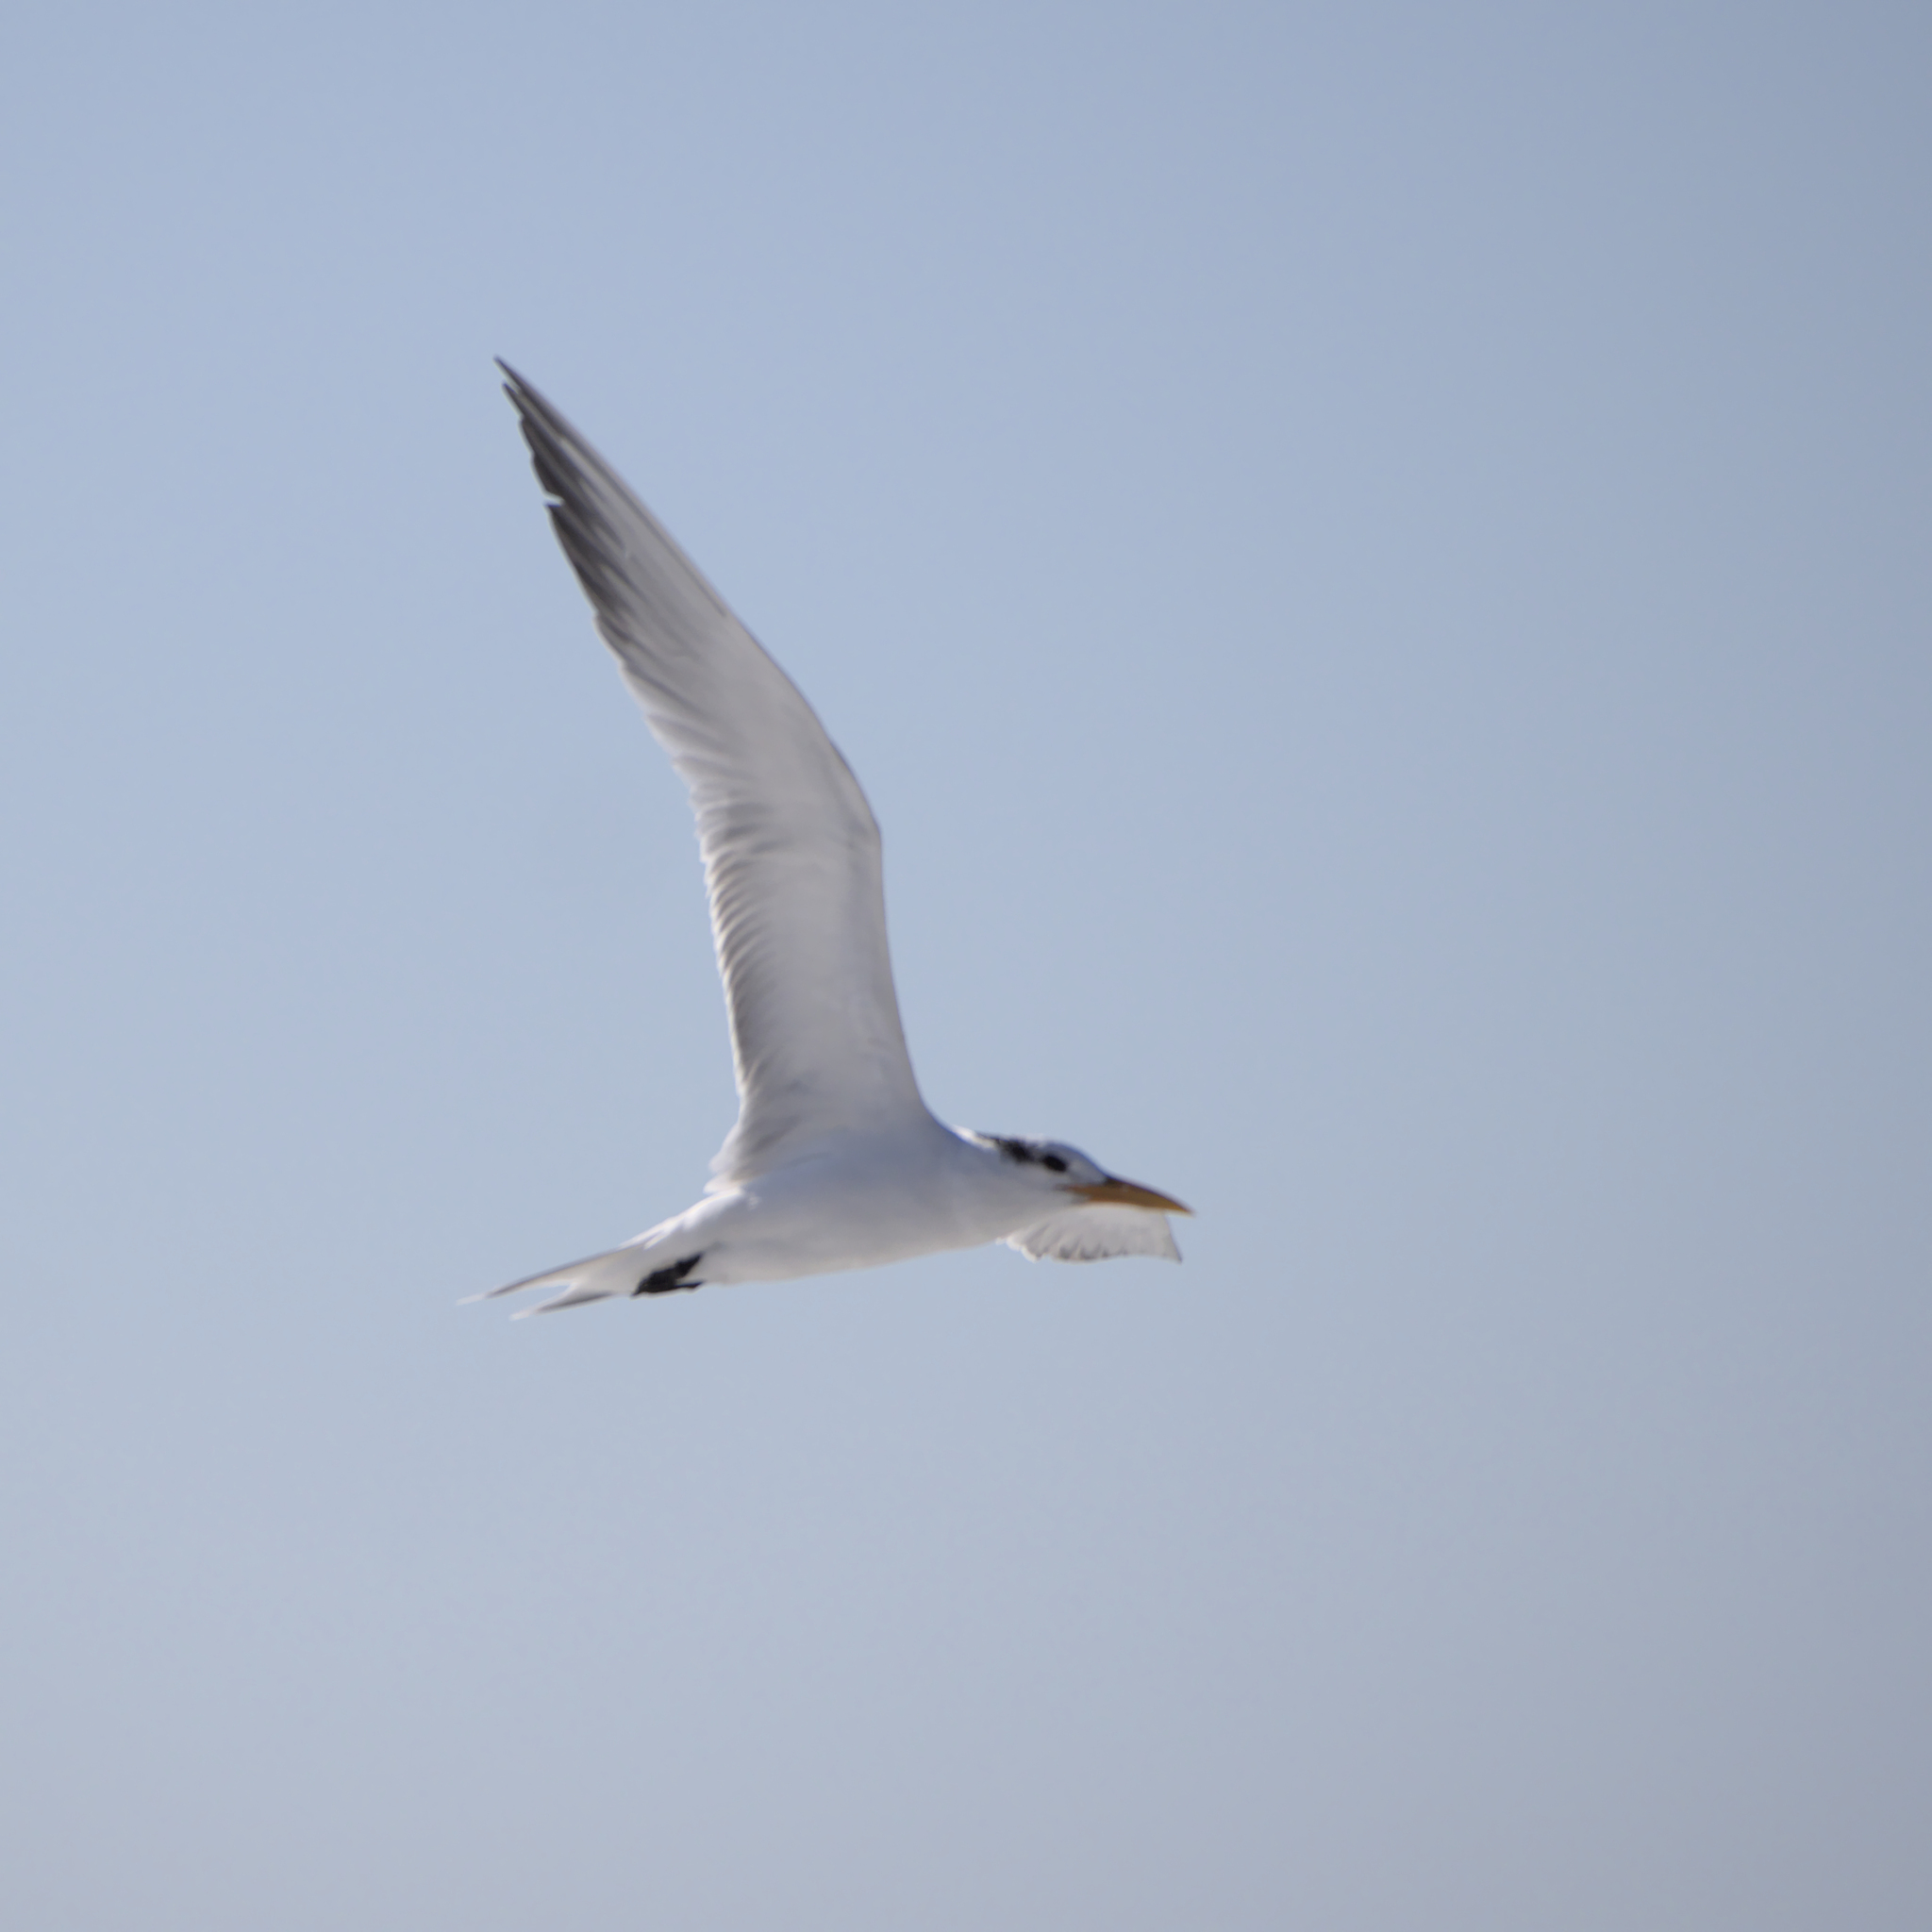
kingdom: Animalia
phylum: Chordata
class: Aves
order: Charadriiformes
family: Laridae
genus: Thalasseus
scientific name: Thalasseus maximus
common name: Royal tern
